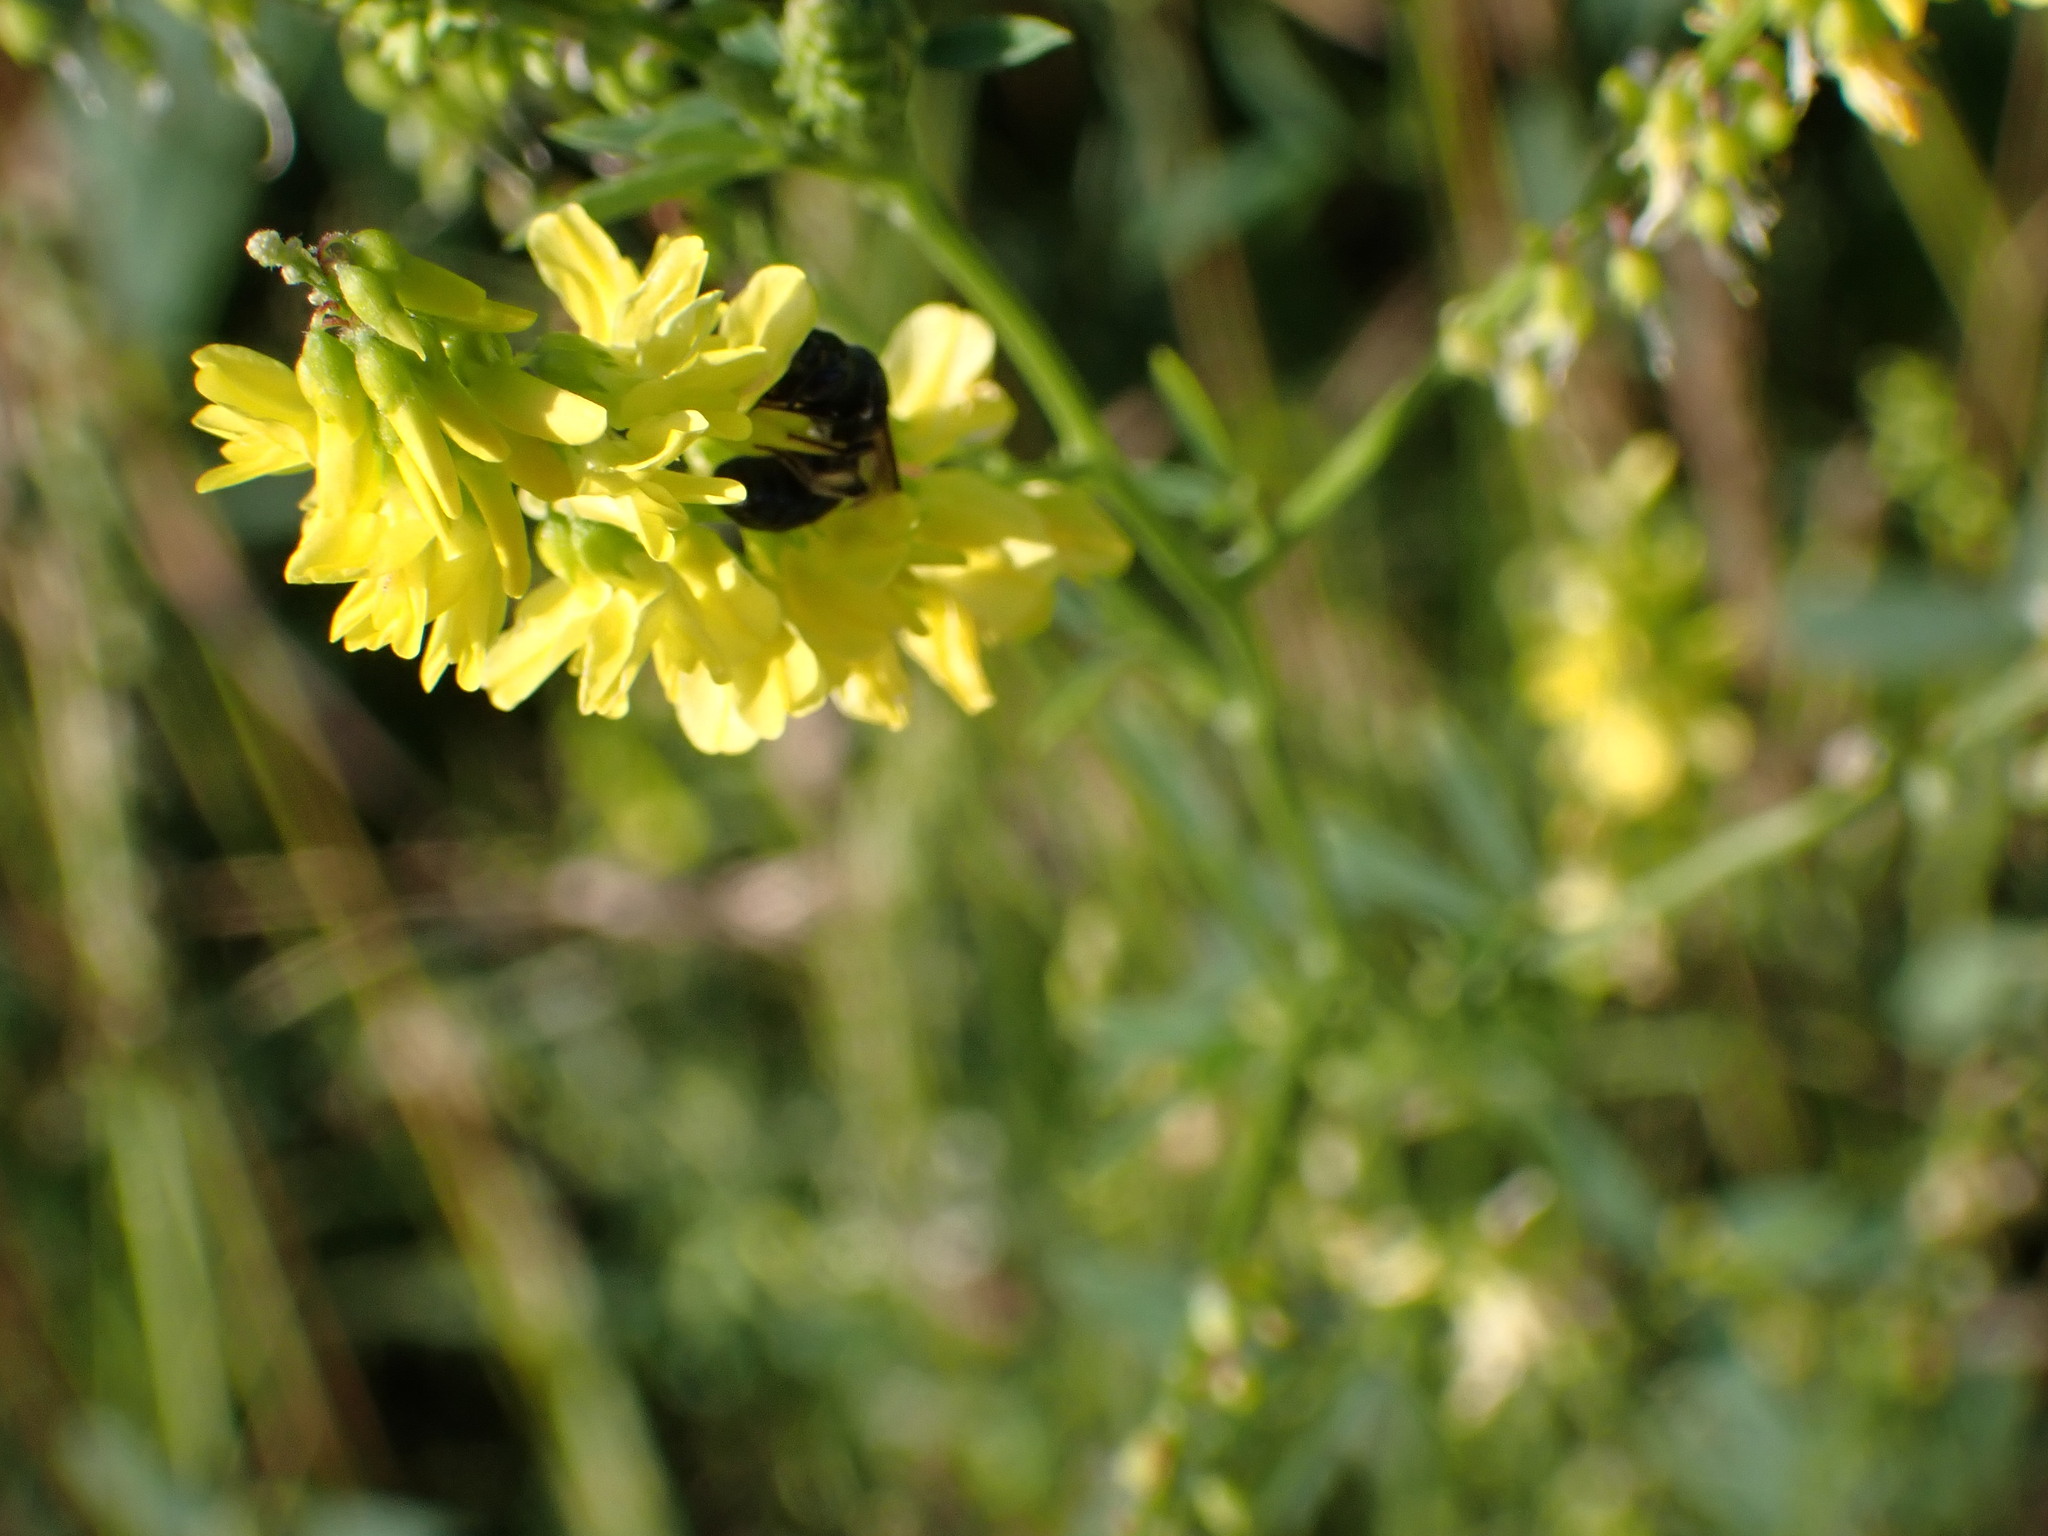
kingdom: Plantae
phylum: Tracheophyta
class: Magnoliopsida
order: Fabales
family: Fabaceae
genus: Melilotus
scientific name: Melilotus officinalis
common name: Sweetclover
